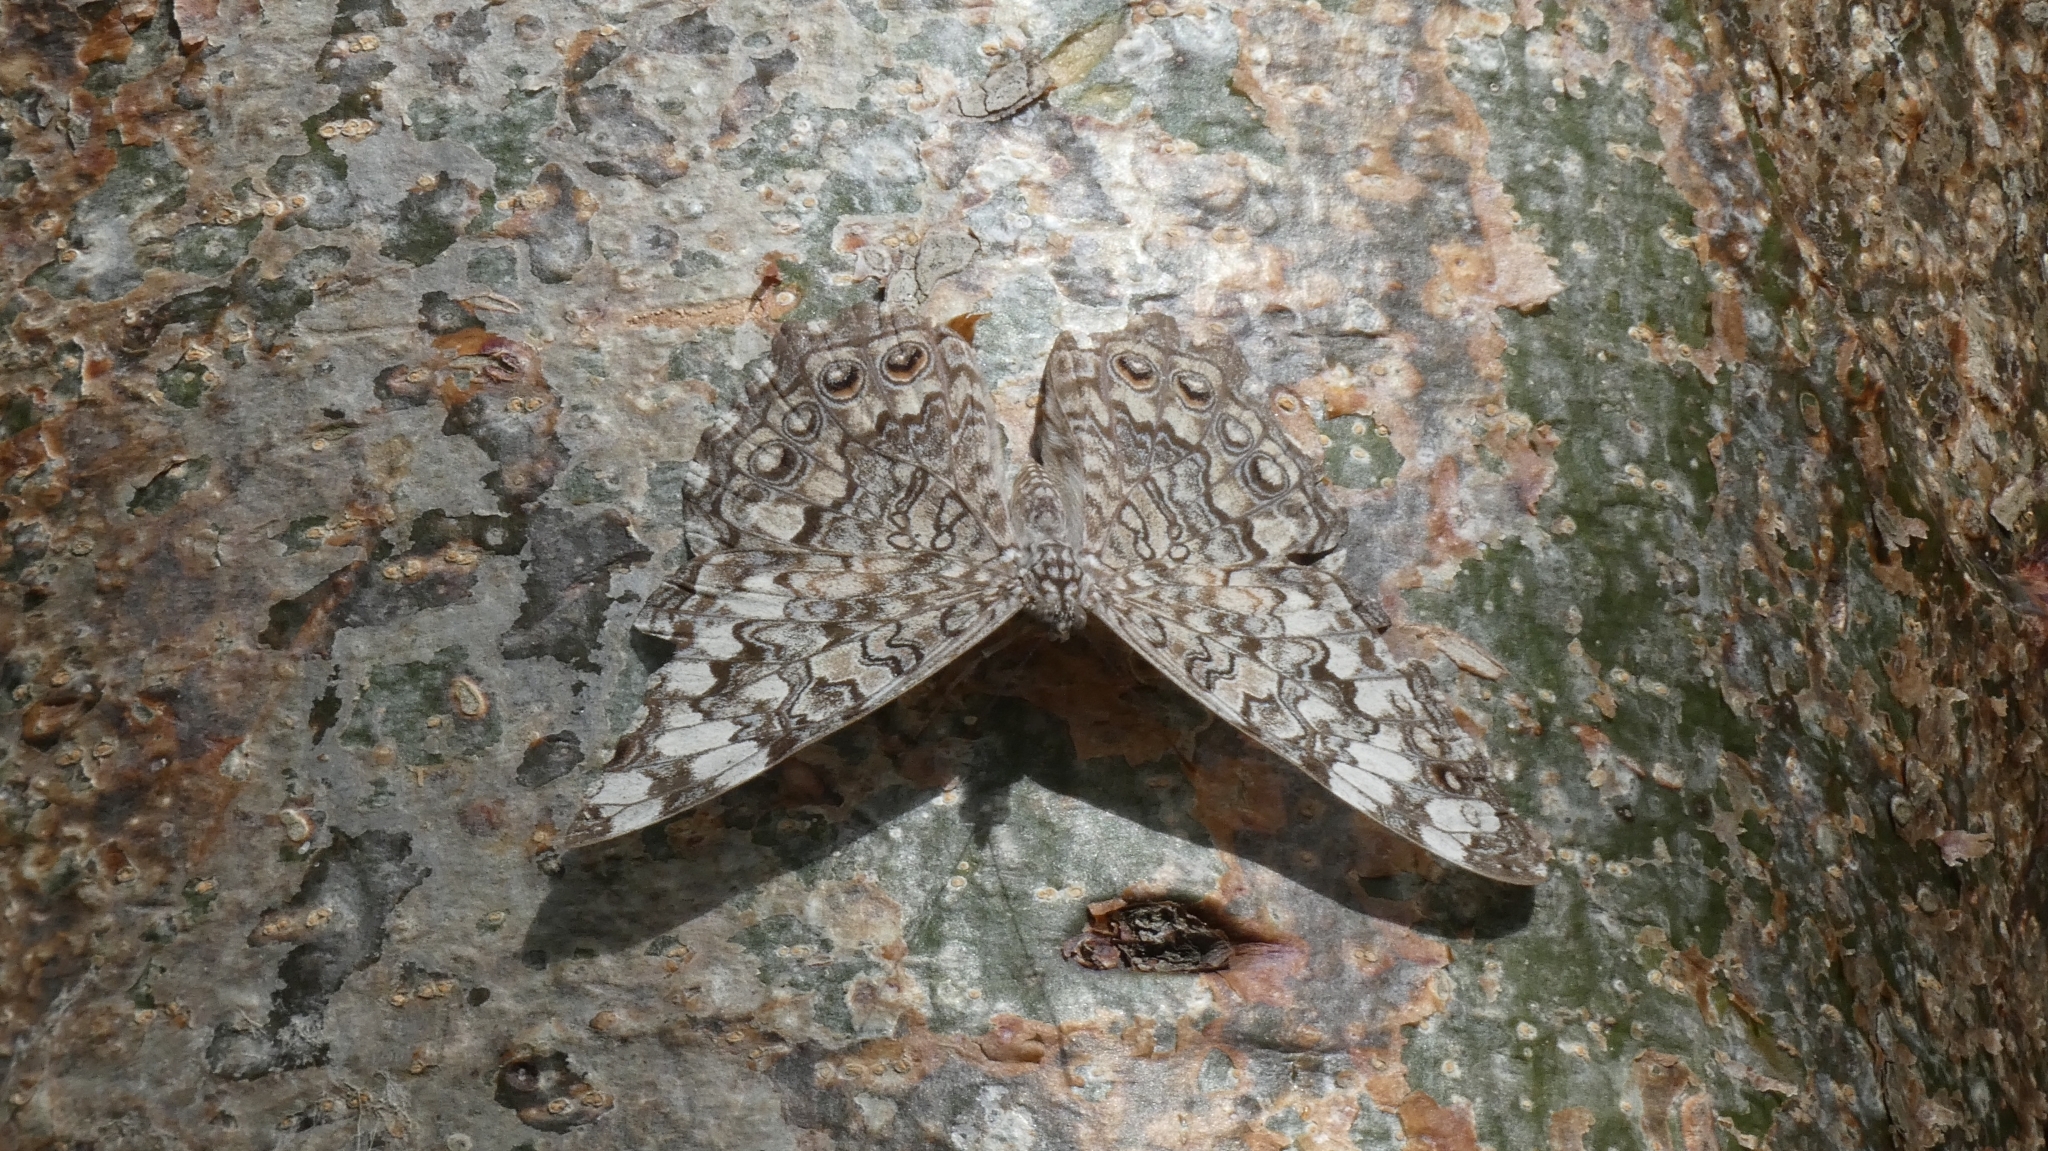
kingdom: Animalia
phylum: Arthropoda
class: Insecta
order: Lepidoptera
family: Nymphalidae
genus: Hamadryas
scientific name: Hamadryas februa
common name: Gray cracker
